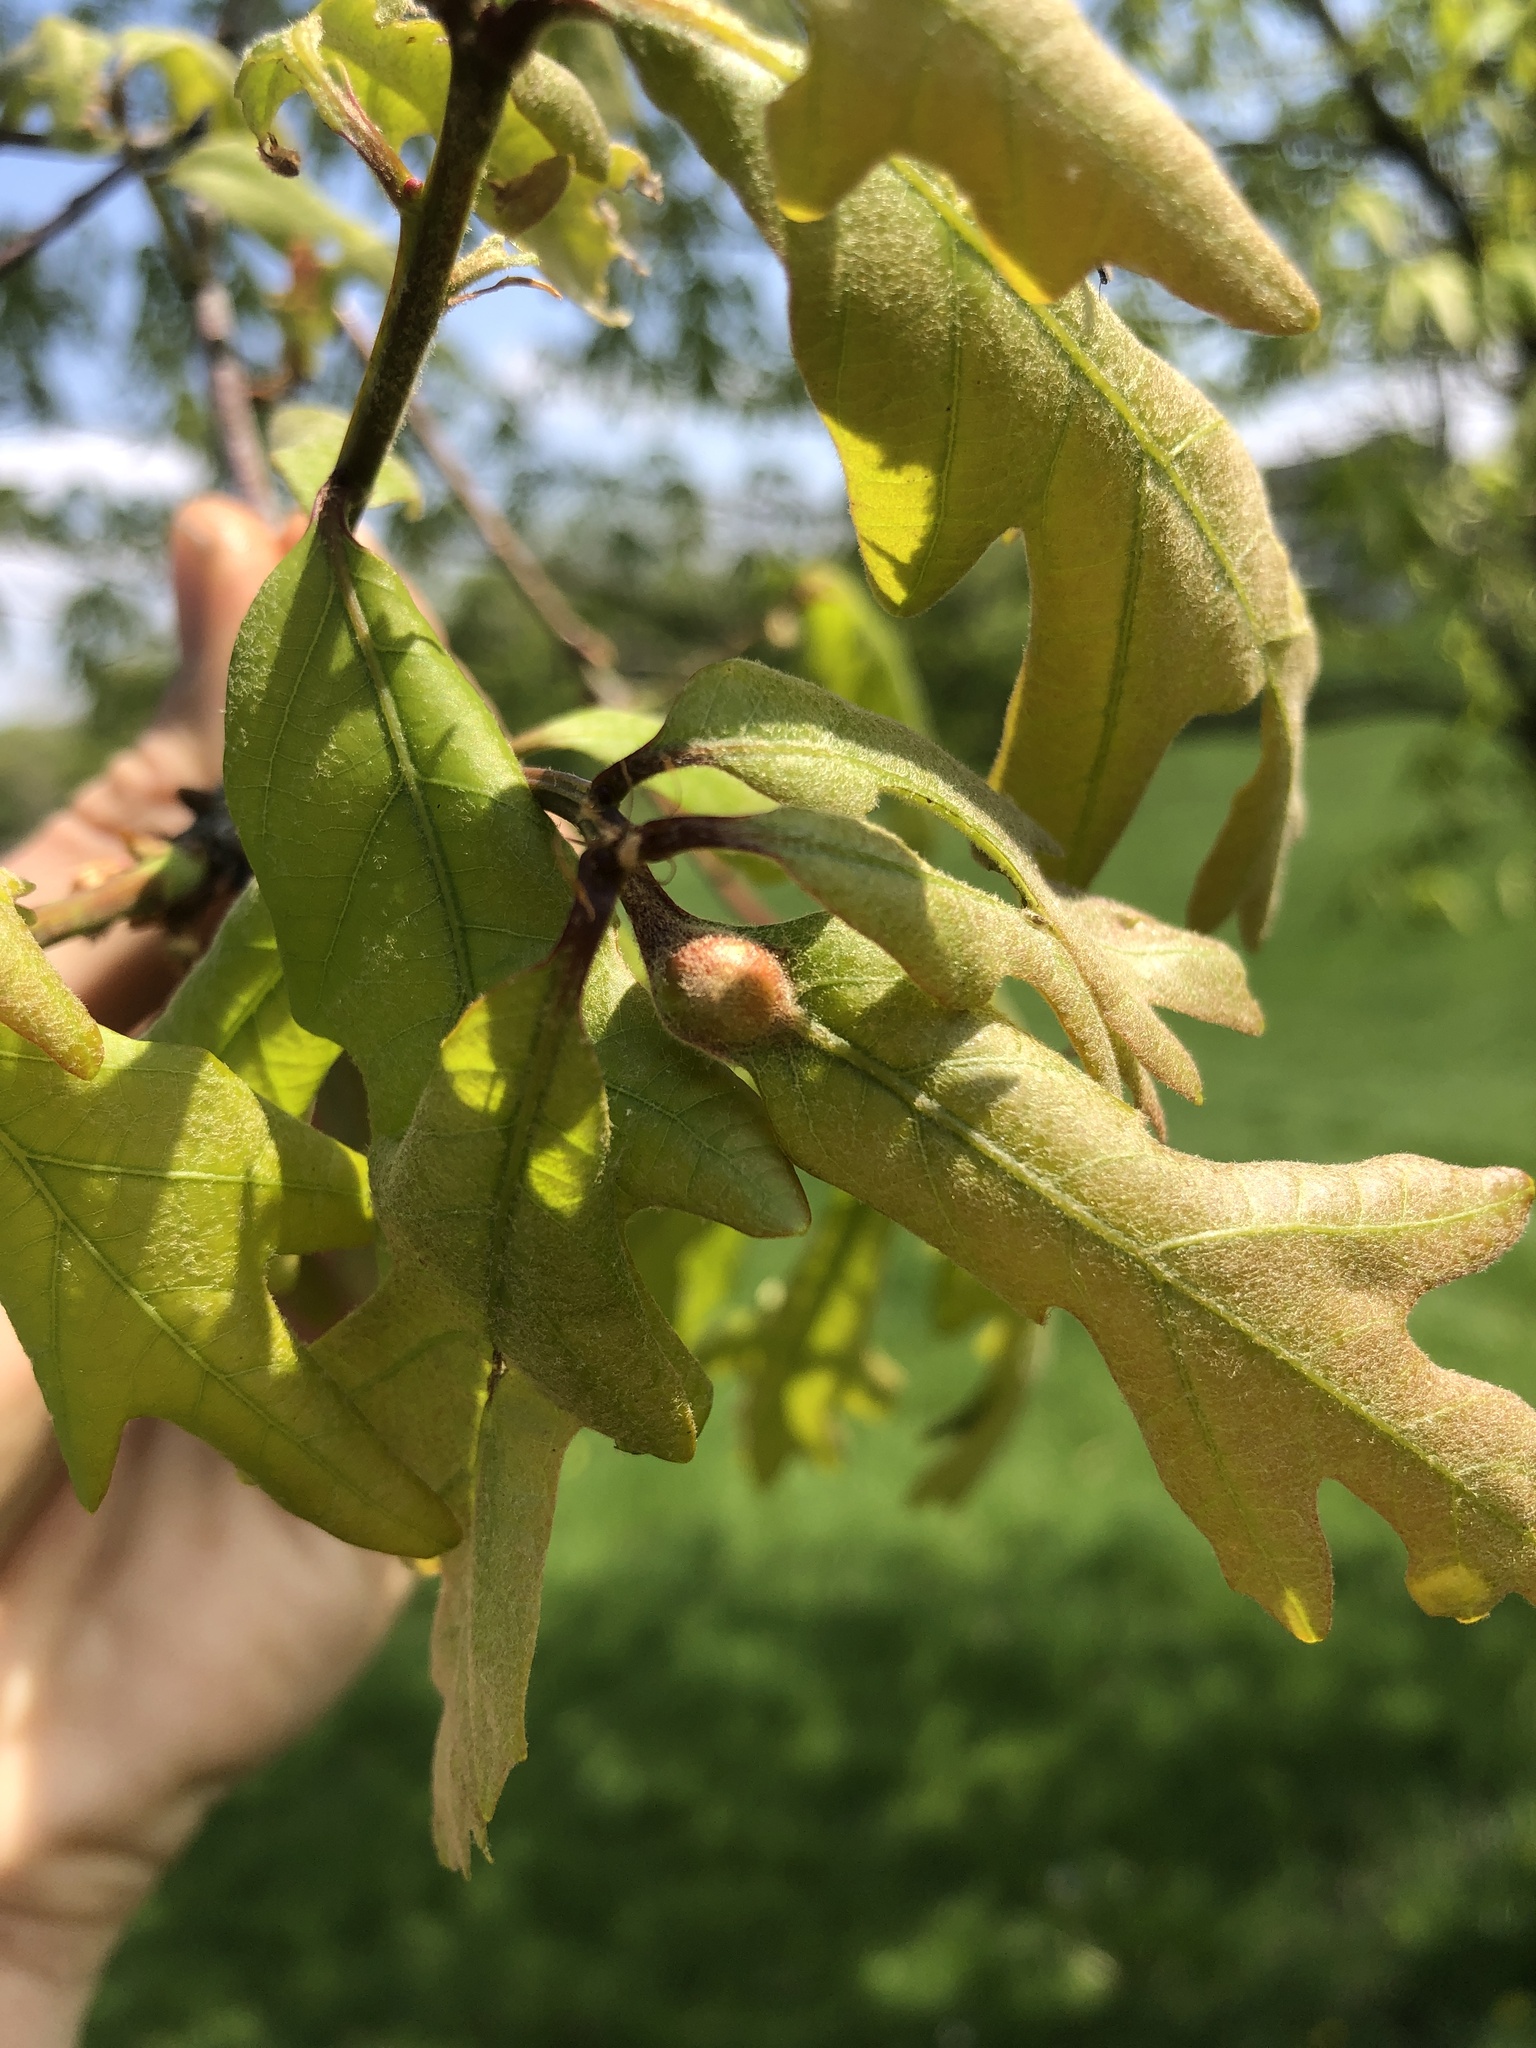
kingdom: Animalia
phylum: Arthropoda
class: Insecta
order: Hymenoptera
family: Cynipidae
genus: Andricus
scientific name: Andricus
